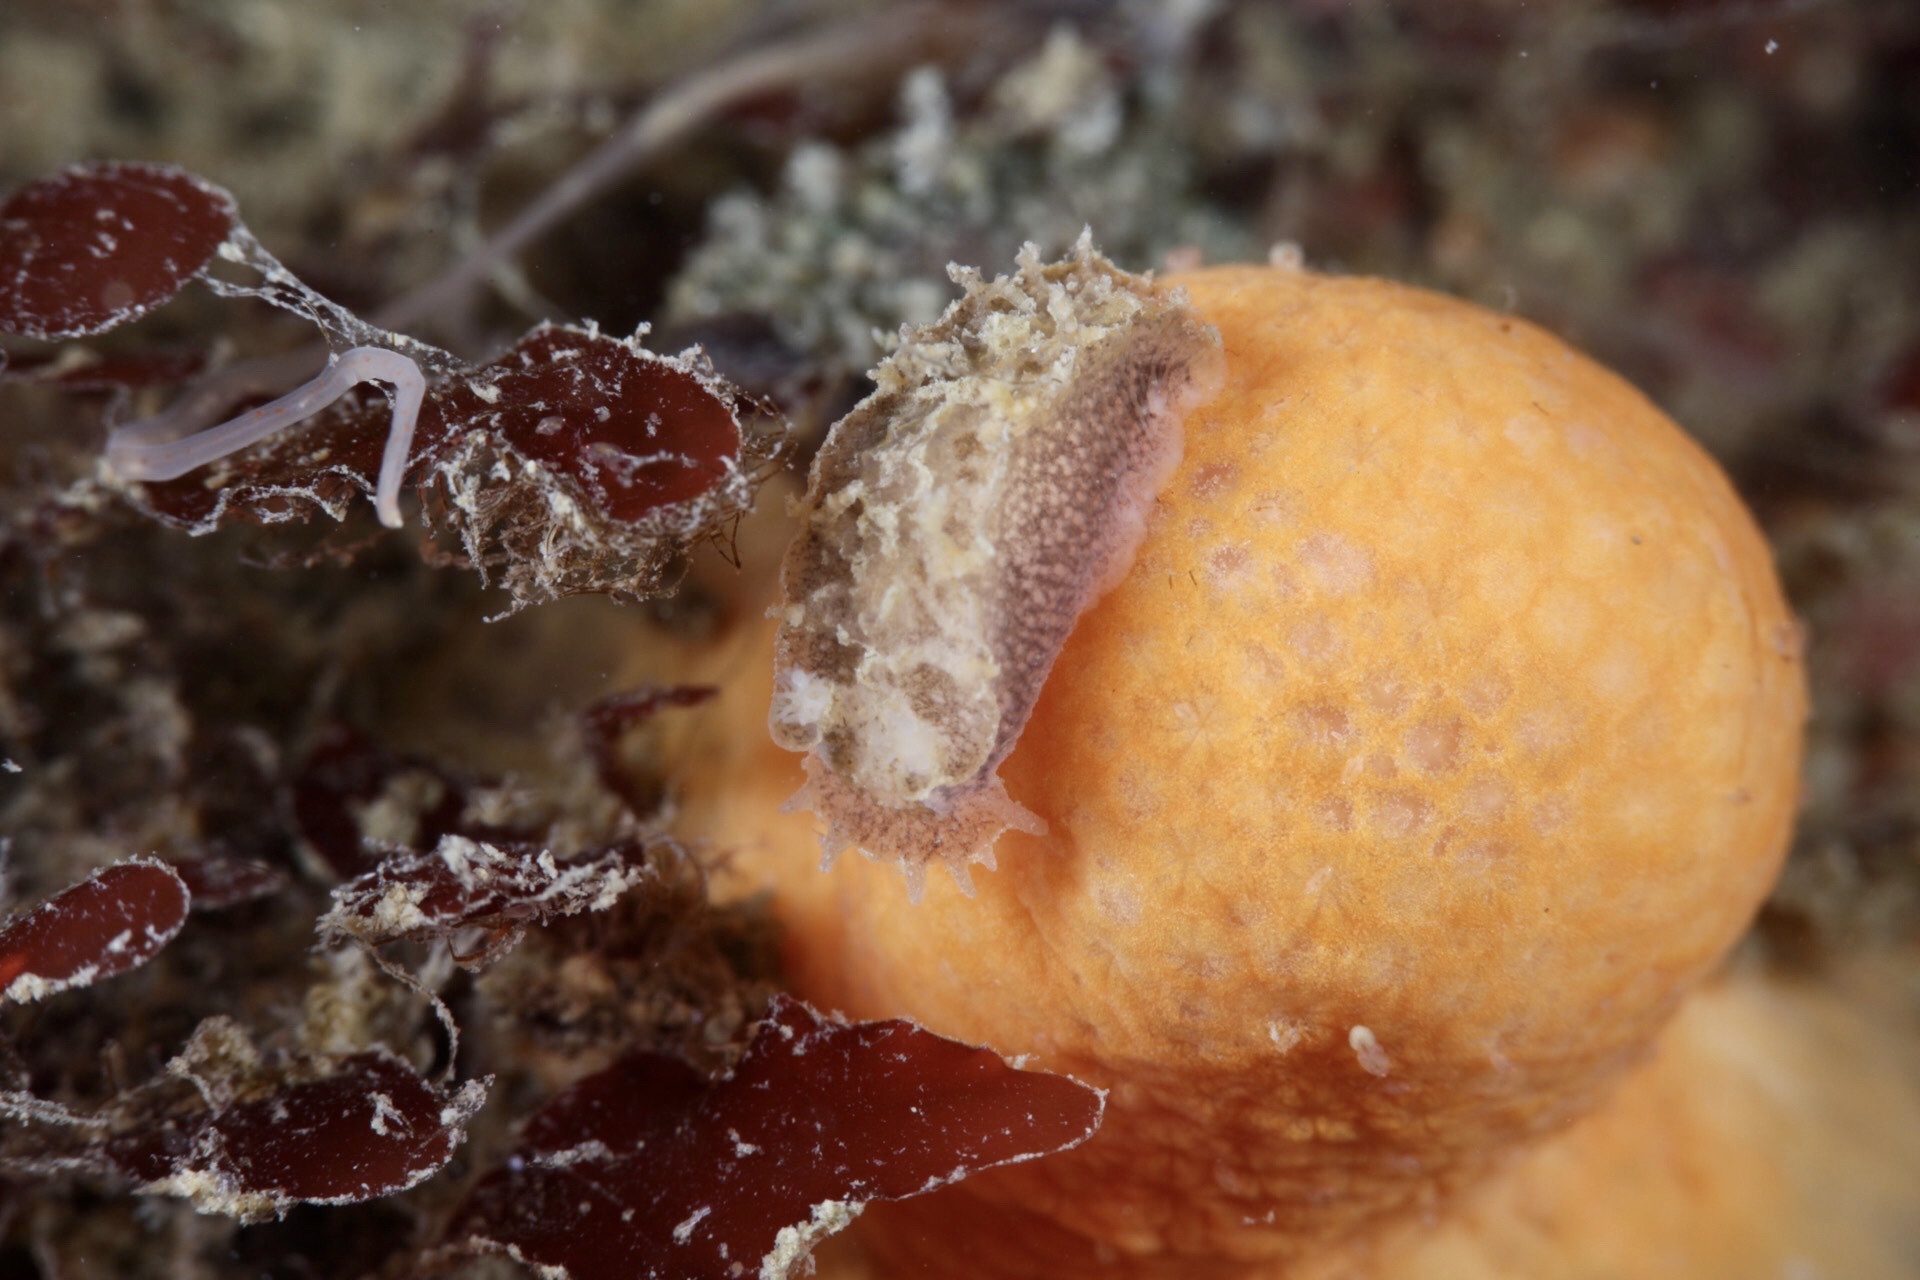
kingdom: Animalia
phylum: Mollusca
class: Gastropoda
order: Nudibranchia
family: Tritoniidae
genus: Duvaucelia
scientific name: Duvaucelia plebeia
